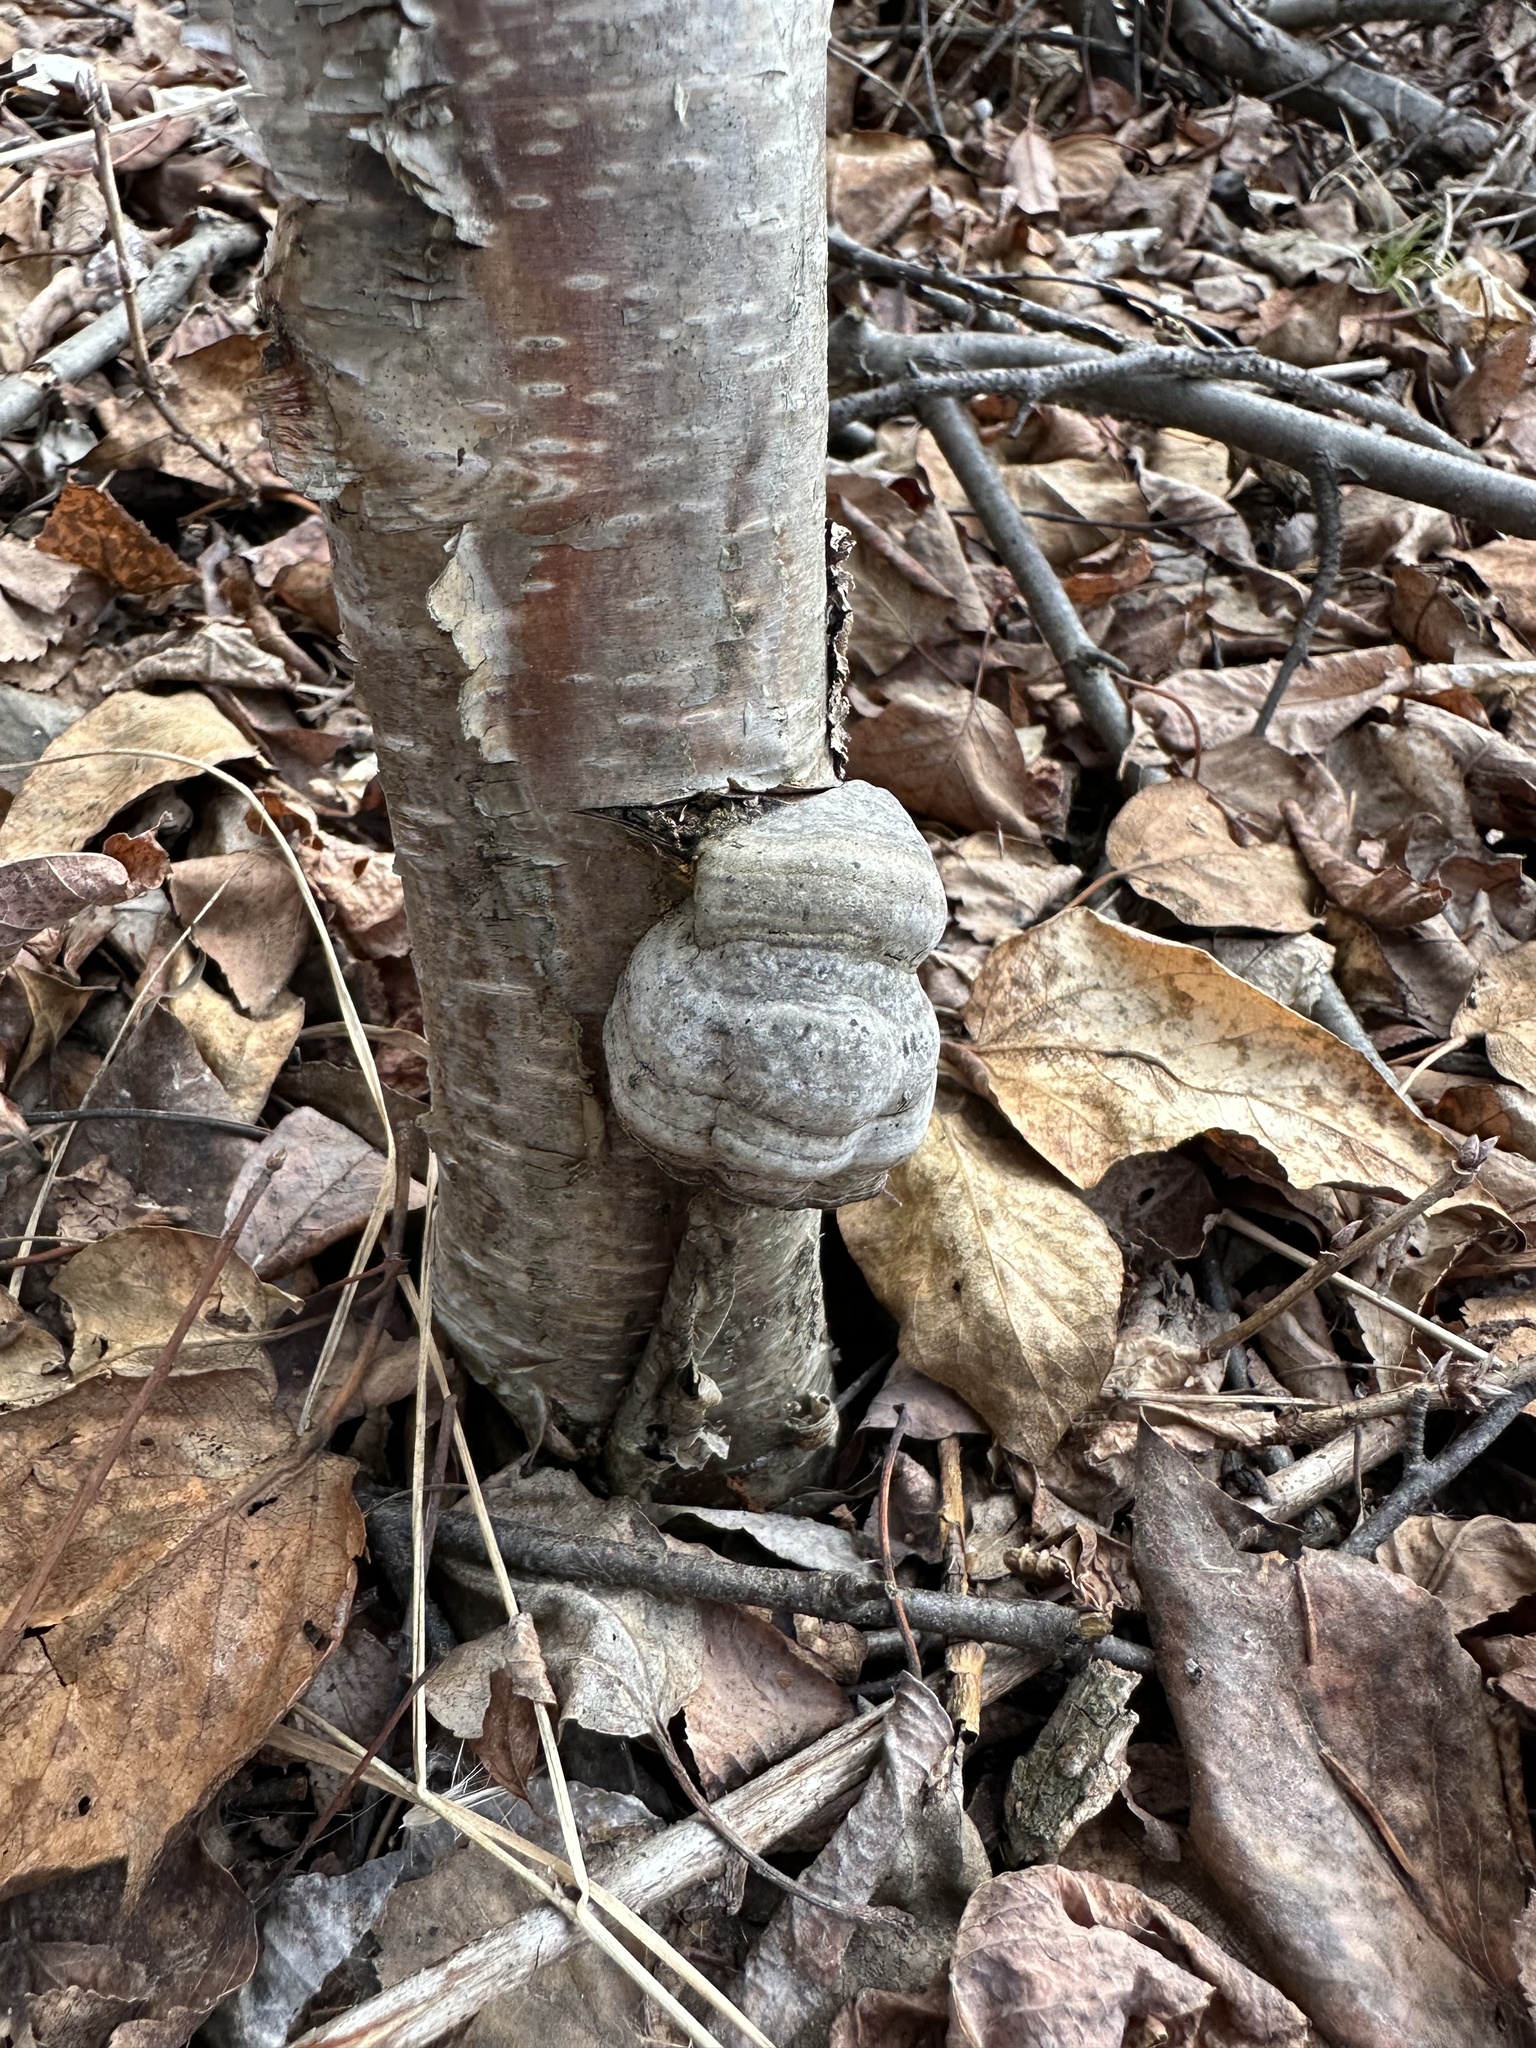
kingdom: Fungi
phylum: Basidiomycota
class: Agaricomycetes
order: Polyporales
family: Polyporaceae
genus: Fomes
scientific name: Fomes fomentarius
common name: Hoof fungus
